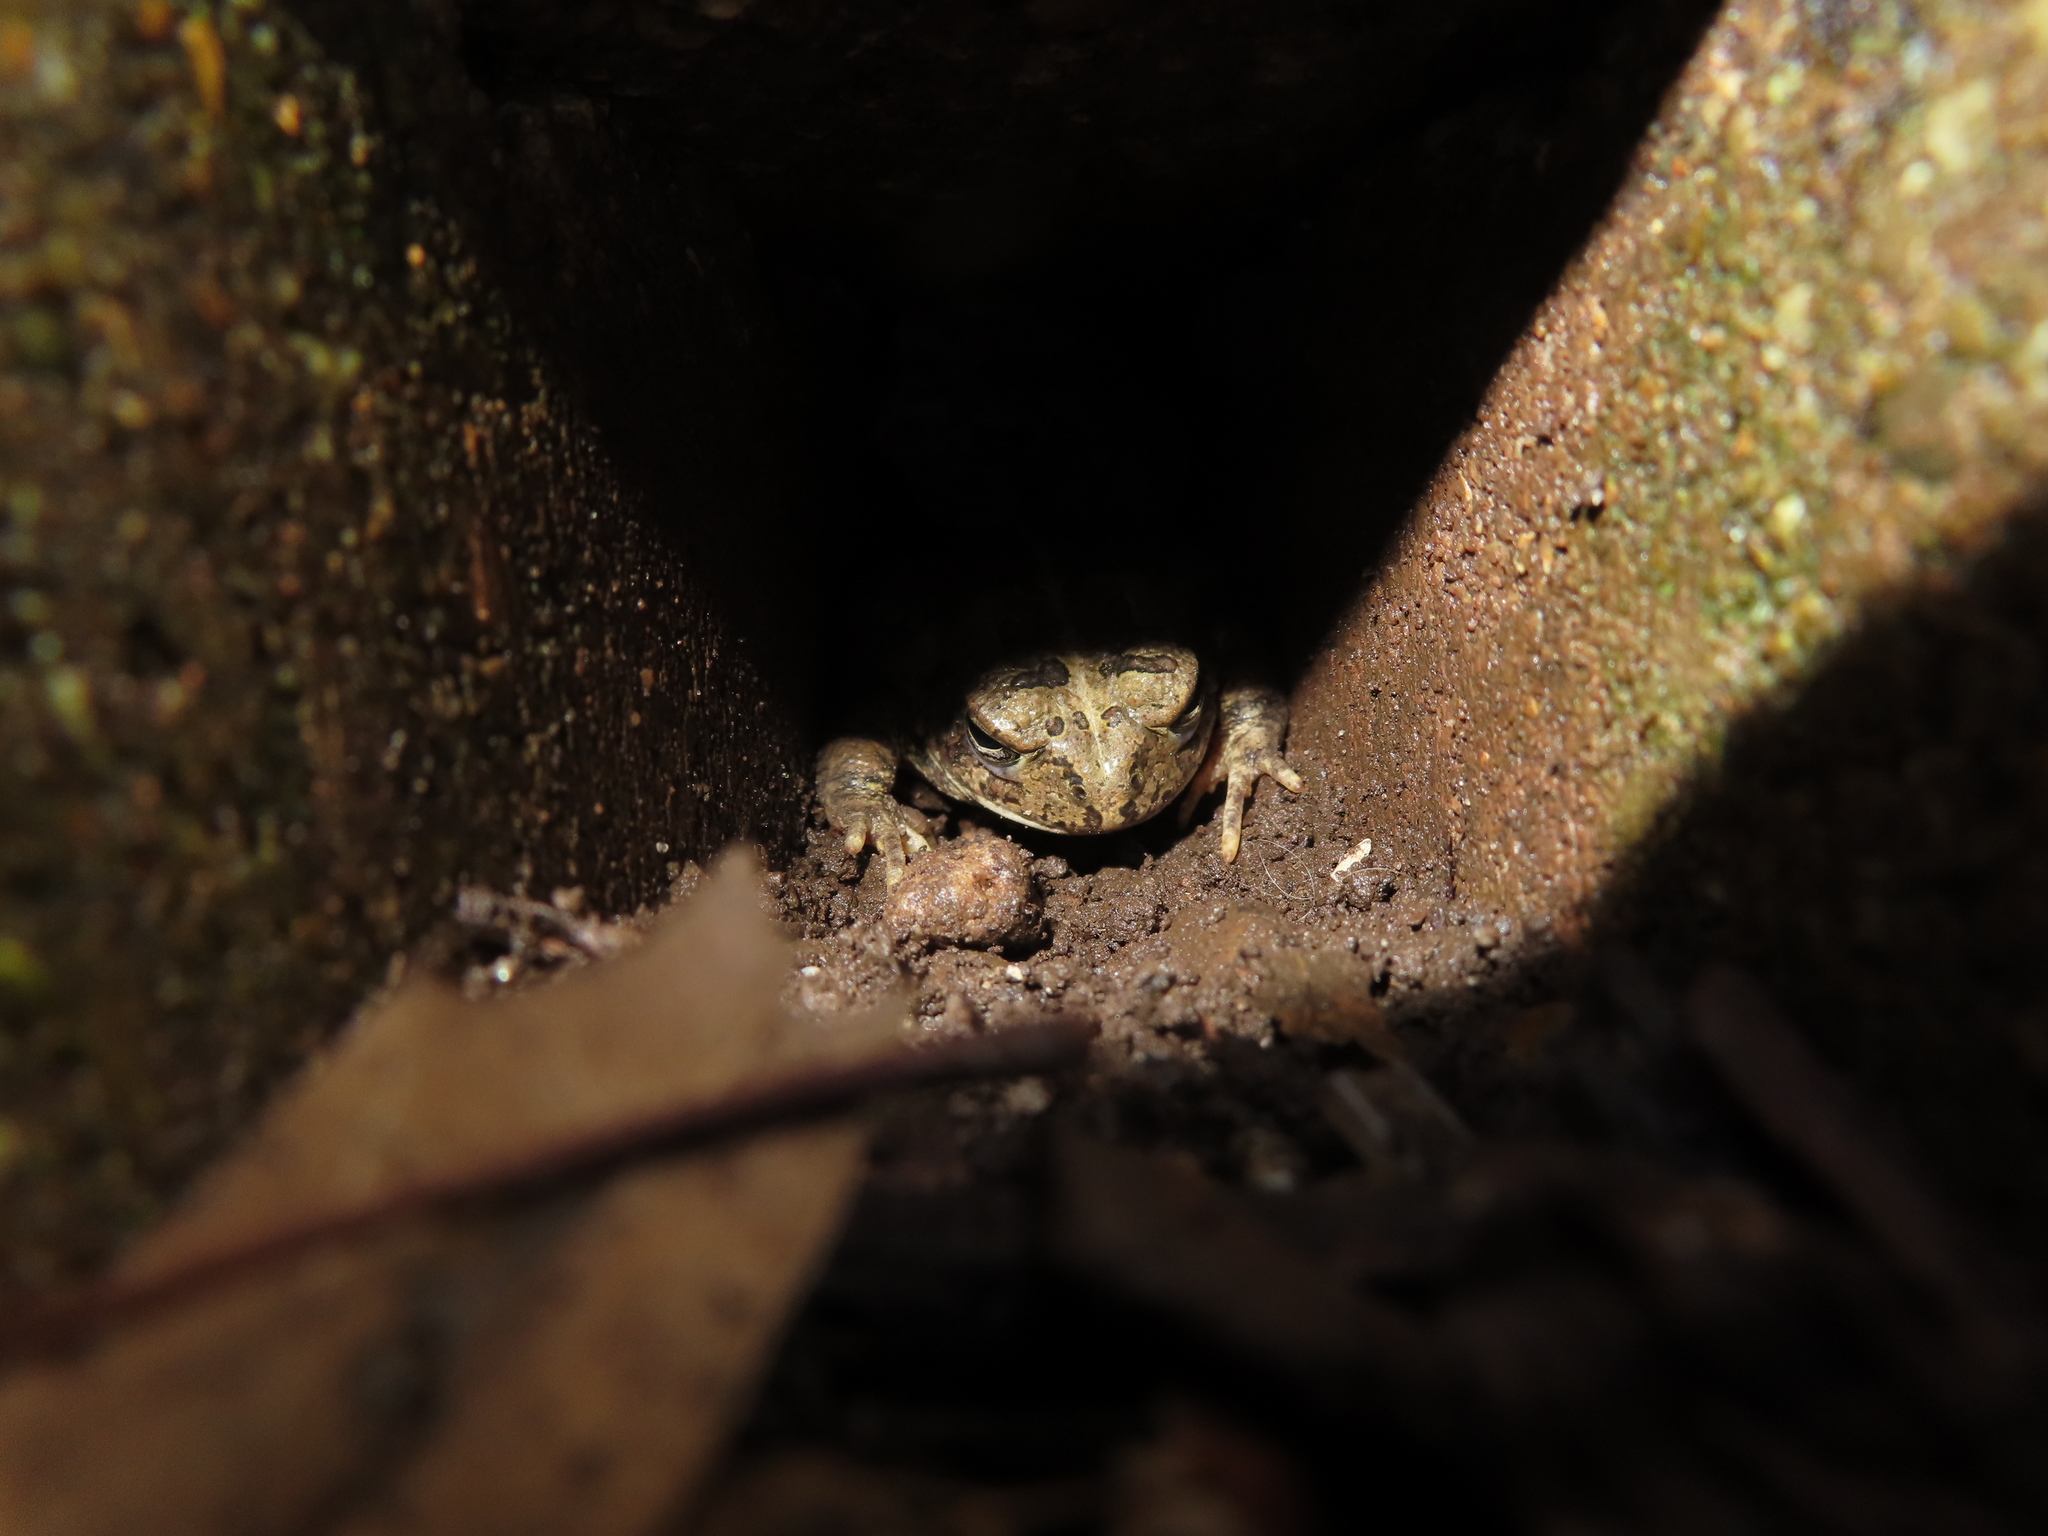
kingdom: Animalia
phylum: Chordata
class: Amphibia
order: Anura
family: Bufonidae
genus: Anaxyrus
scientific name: Anaxyrus fowleri
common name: Fowler's toad
